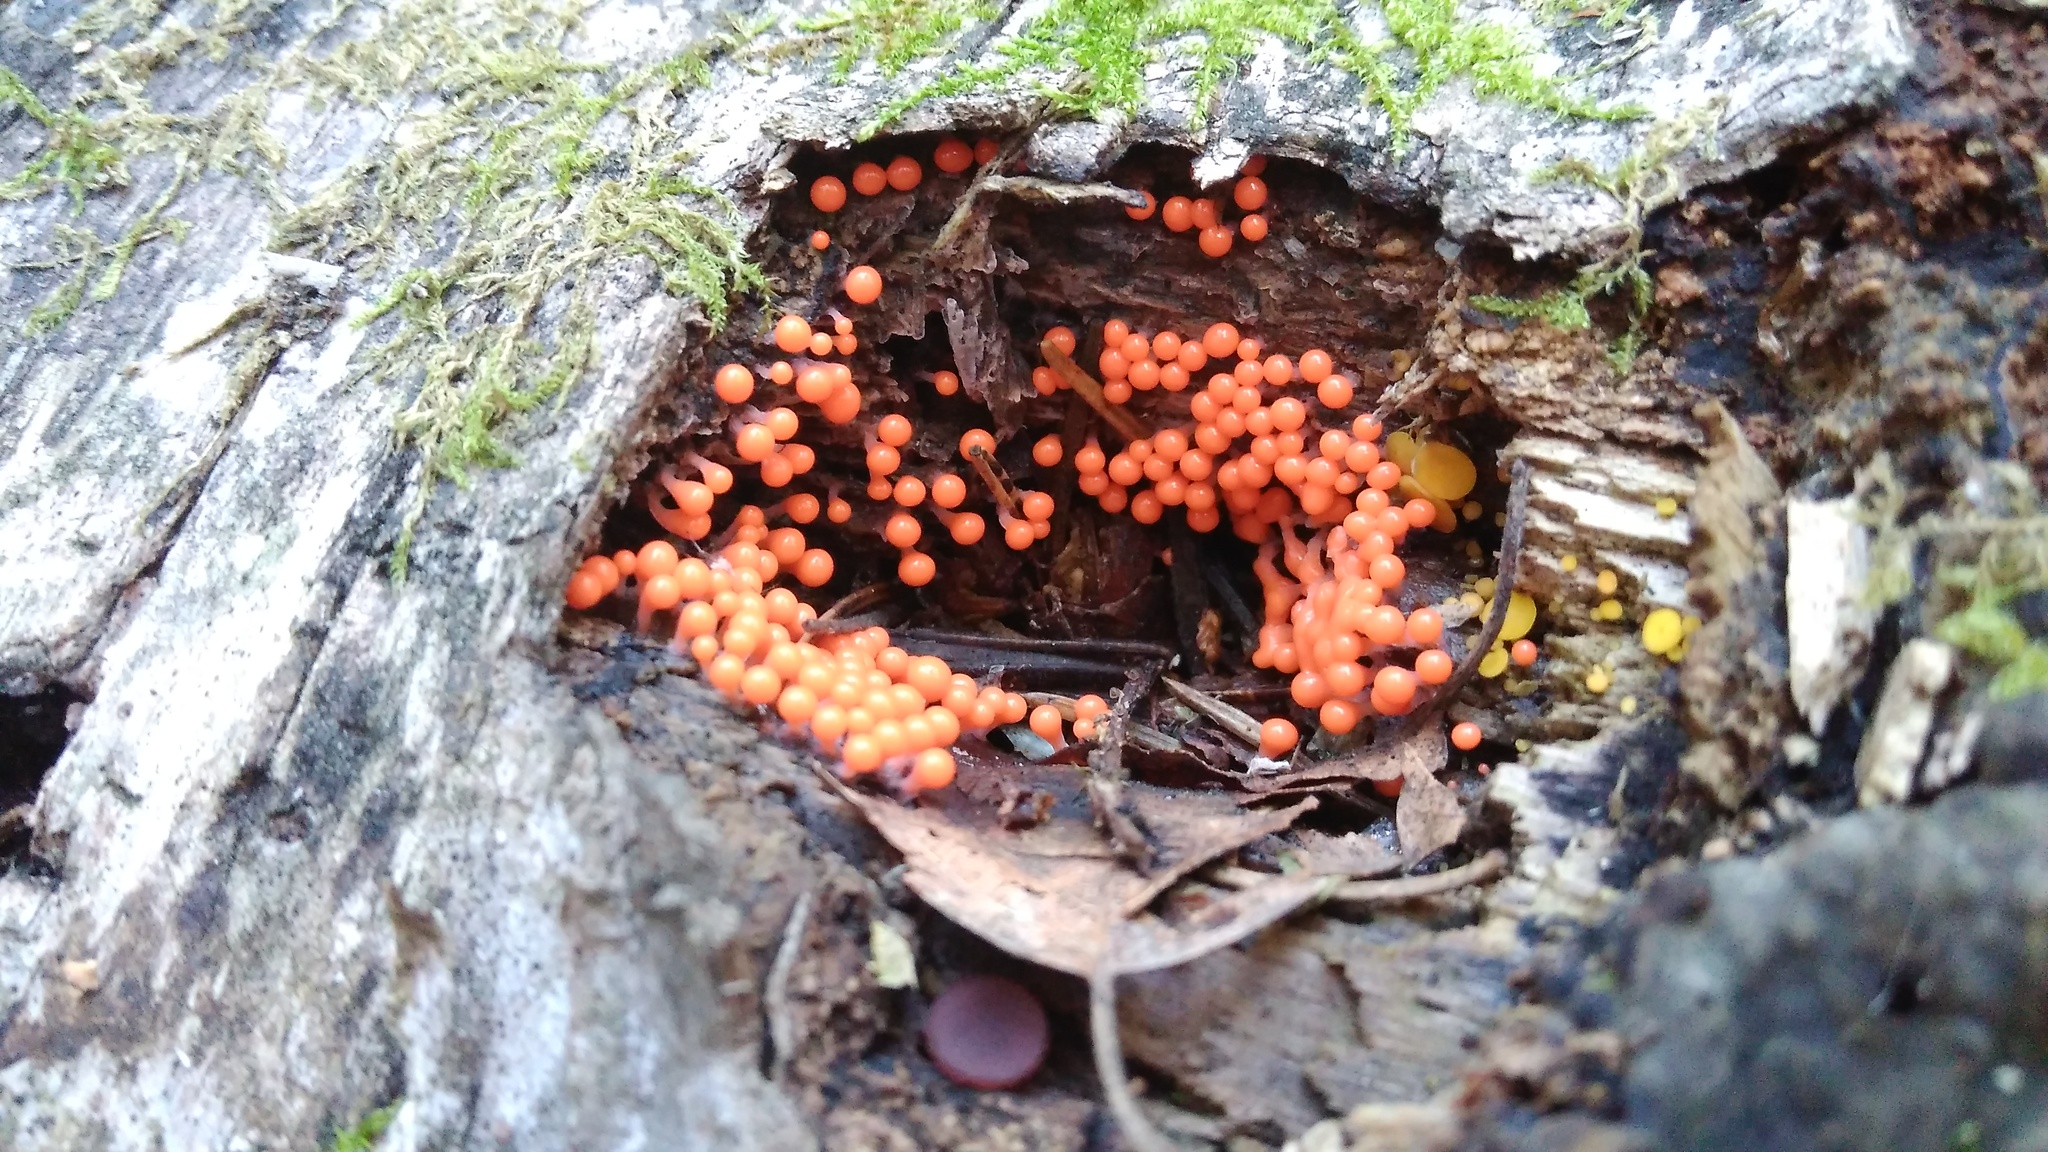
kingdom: Protozoa
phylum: Mycetozoa
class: Myxomycetes
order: Trichiales
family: Arcyriaceae
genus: Hemitrichia
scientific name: Hemitrichia decipiens
